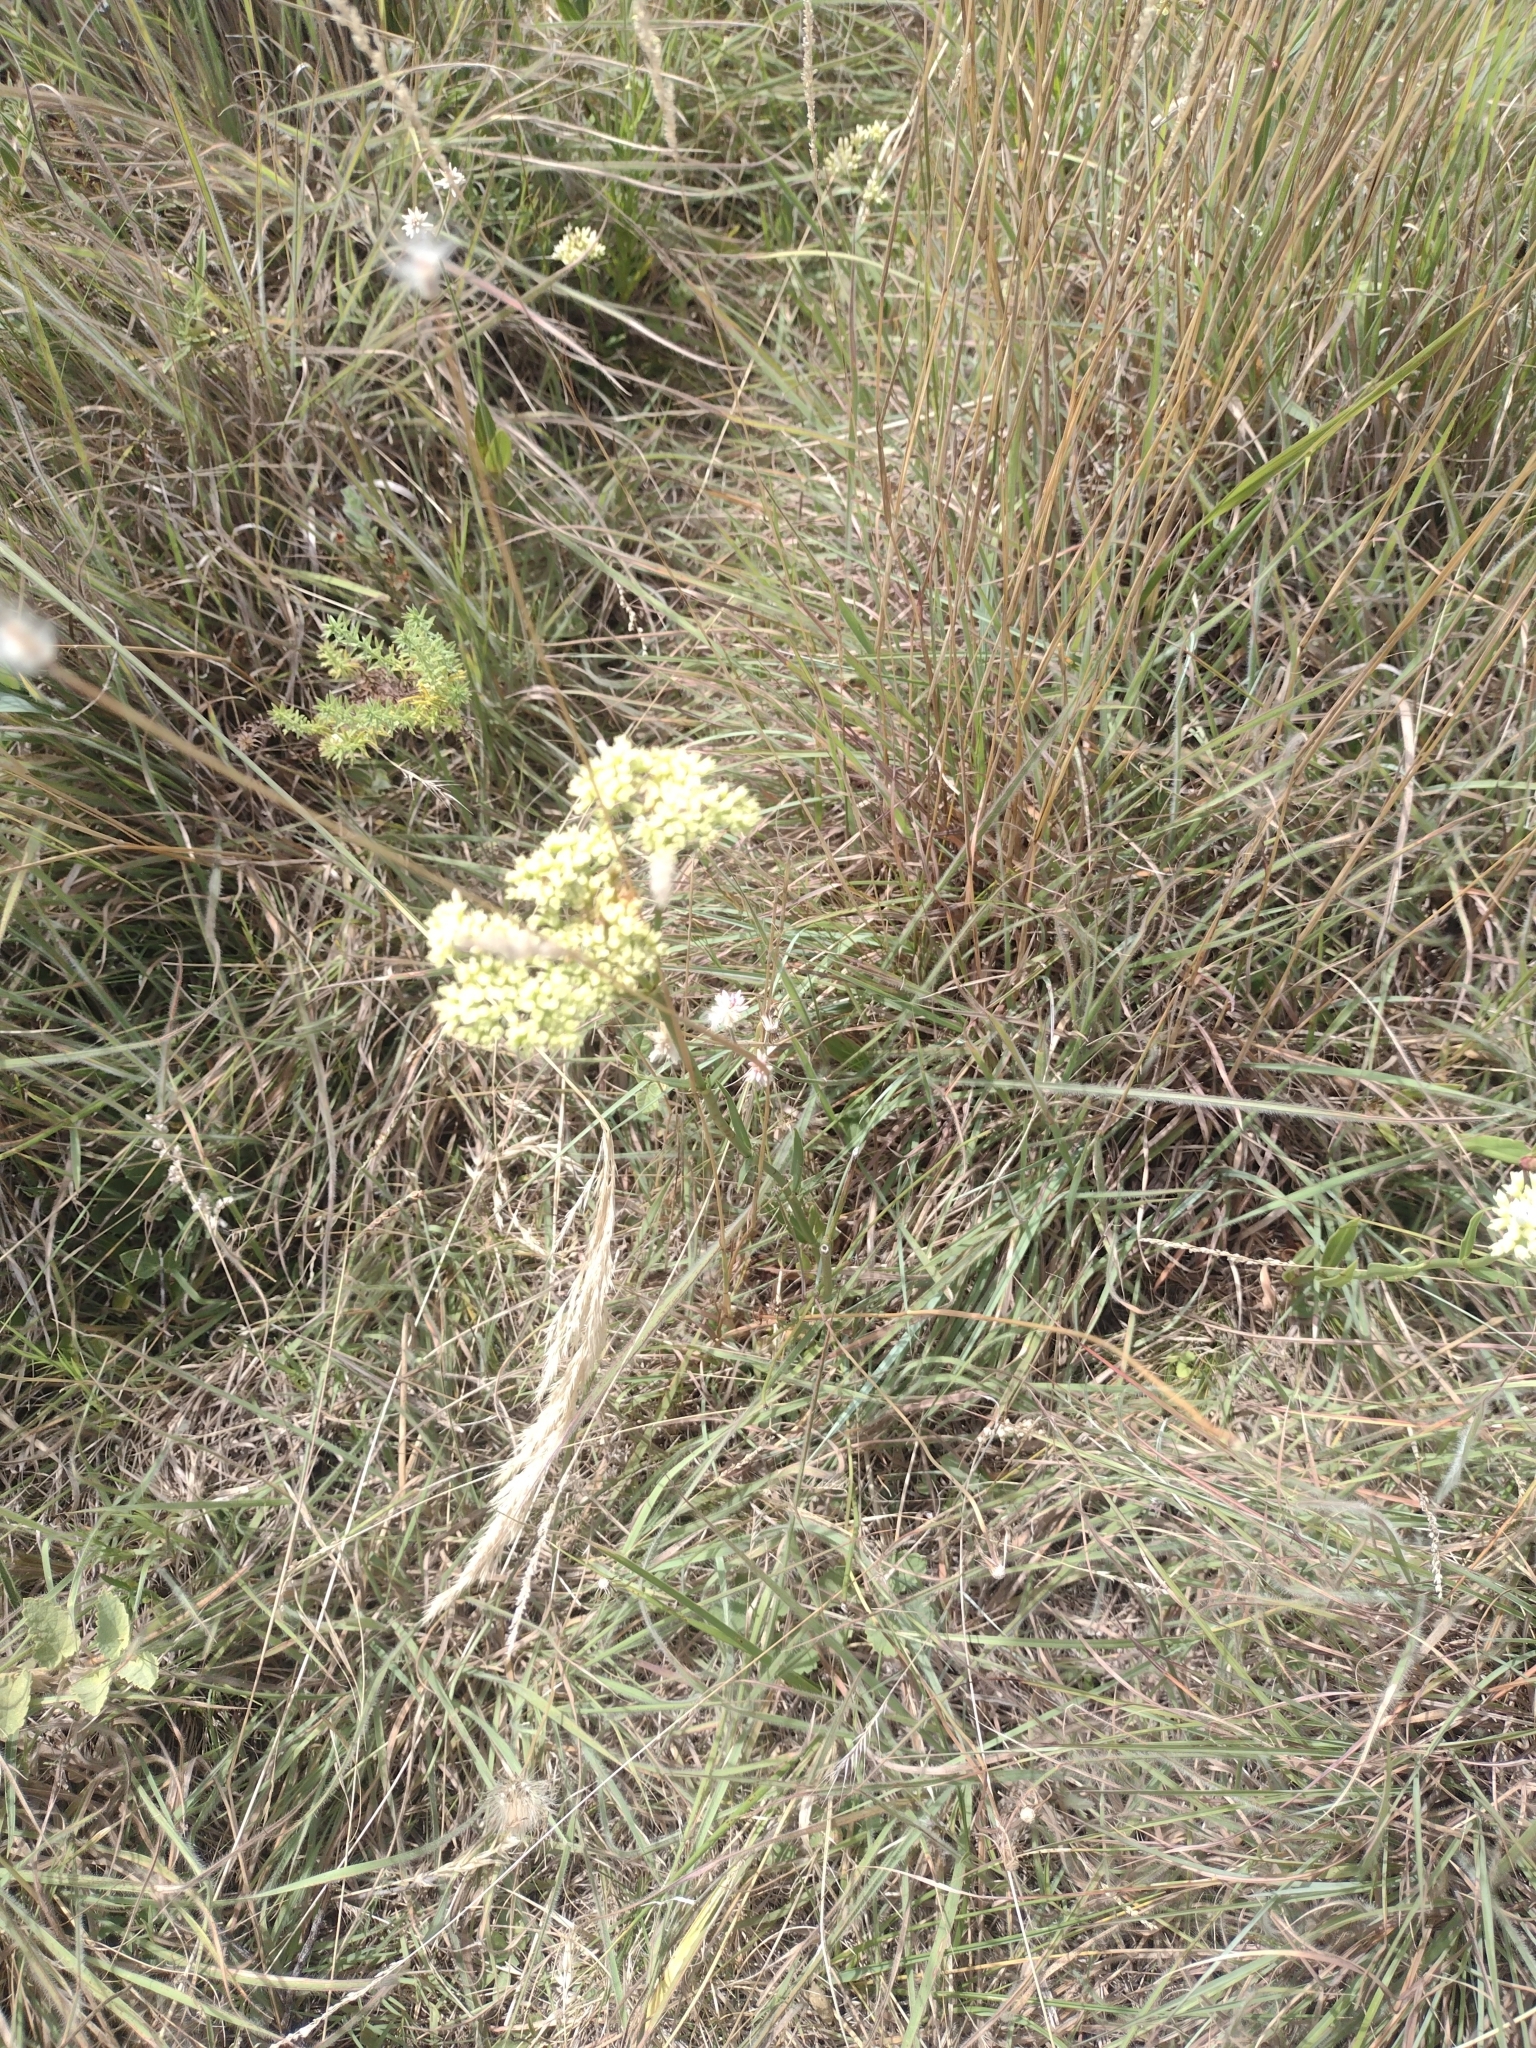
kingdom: Plantae
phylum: Tracheophyta
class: Magnoliopsida
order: Gentianales
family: Rubiaceae
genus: Galianthe
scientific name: Galianthe fastigiata
